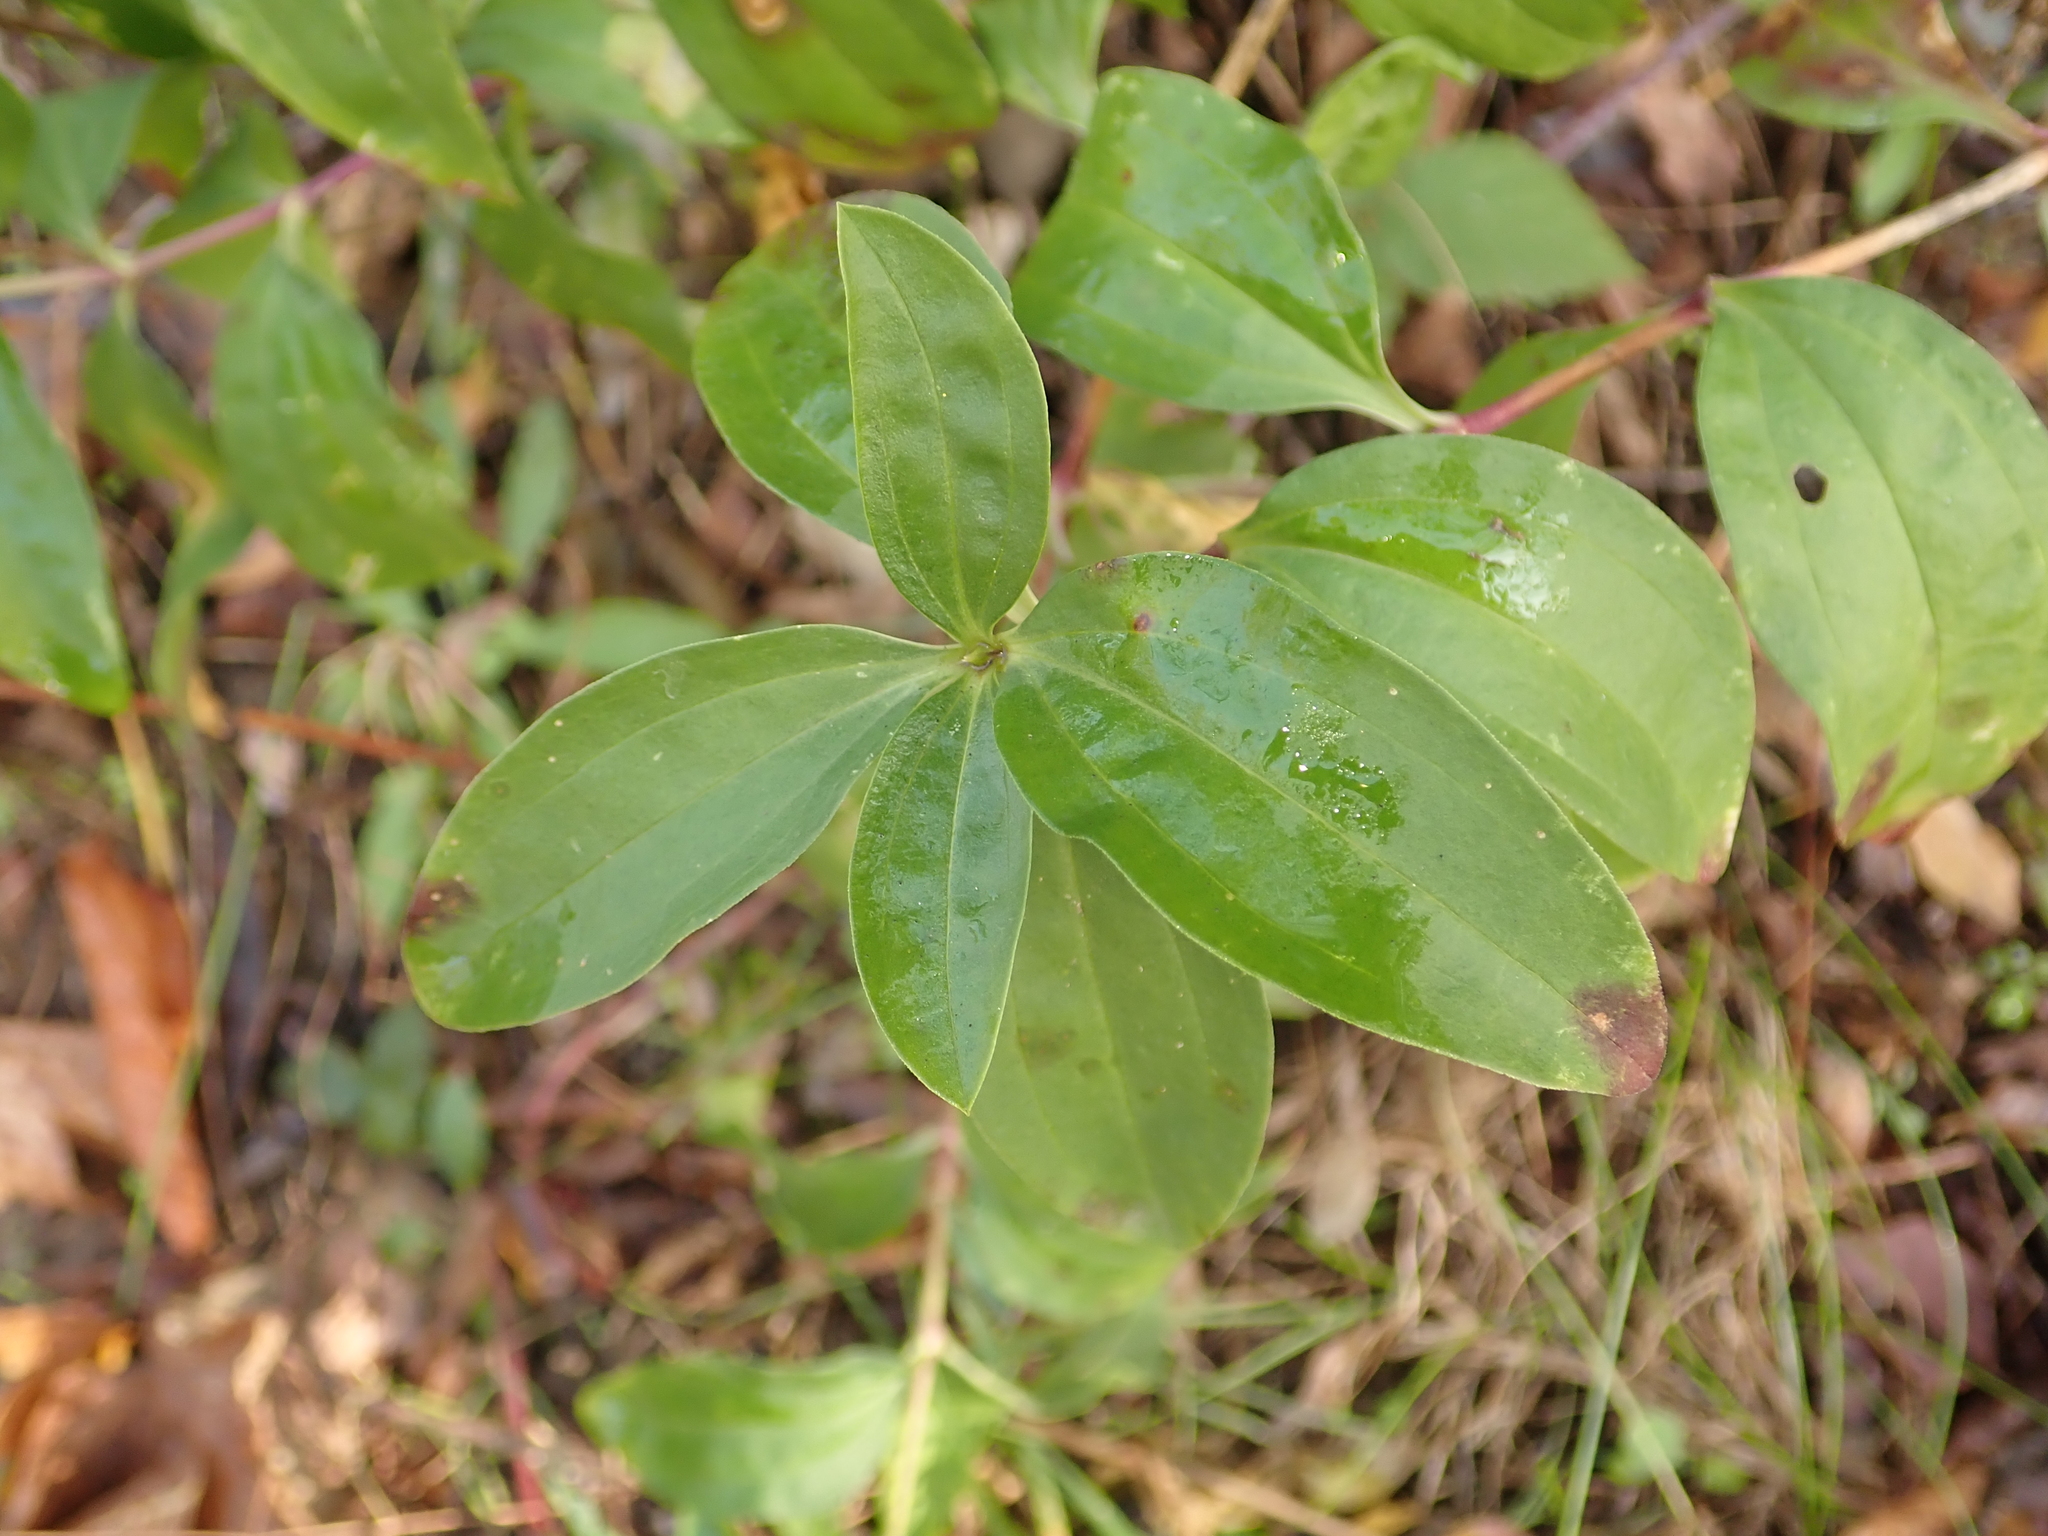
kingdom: Plantae
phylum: Tracheophyta
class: Magnoliopsida
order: Caryophyllales
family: Caryophyllaceae
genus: Saponaria
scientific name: Saponaria officinalis
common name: Soapwort
